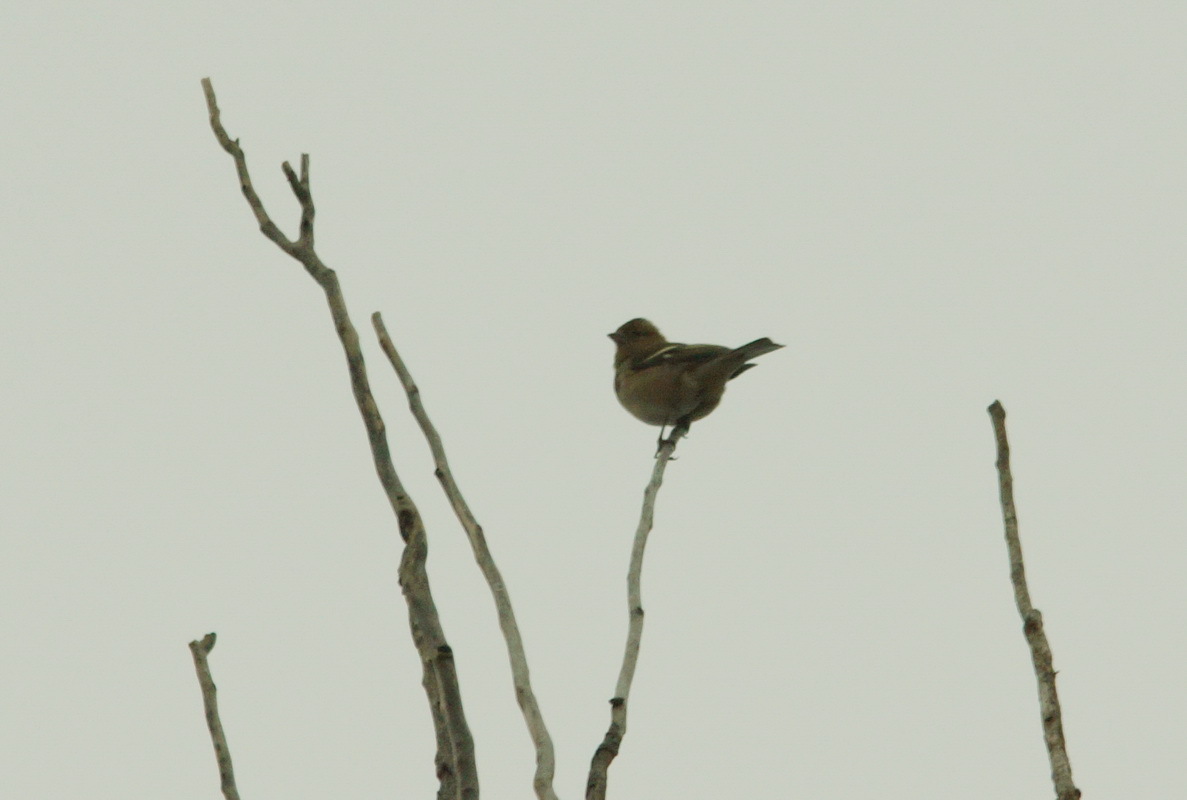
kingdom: Animalia
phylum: Chordata
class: Aves
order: Passeriformes
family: Fringillidae
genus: Fringilla
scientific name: Fringilla coelebs
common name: Common chaffinch
